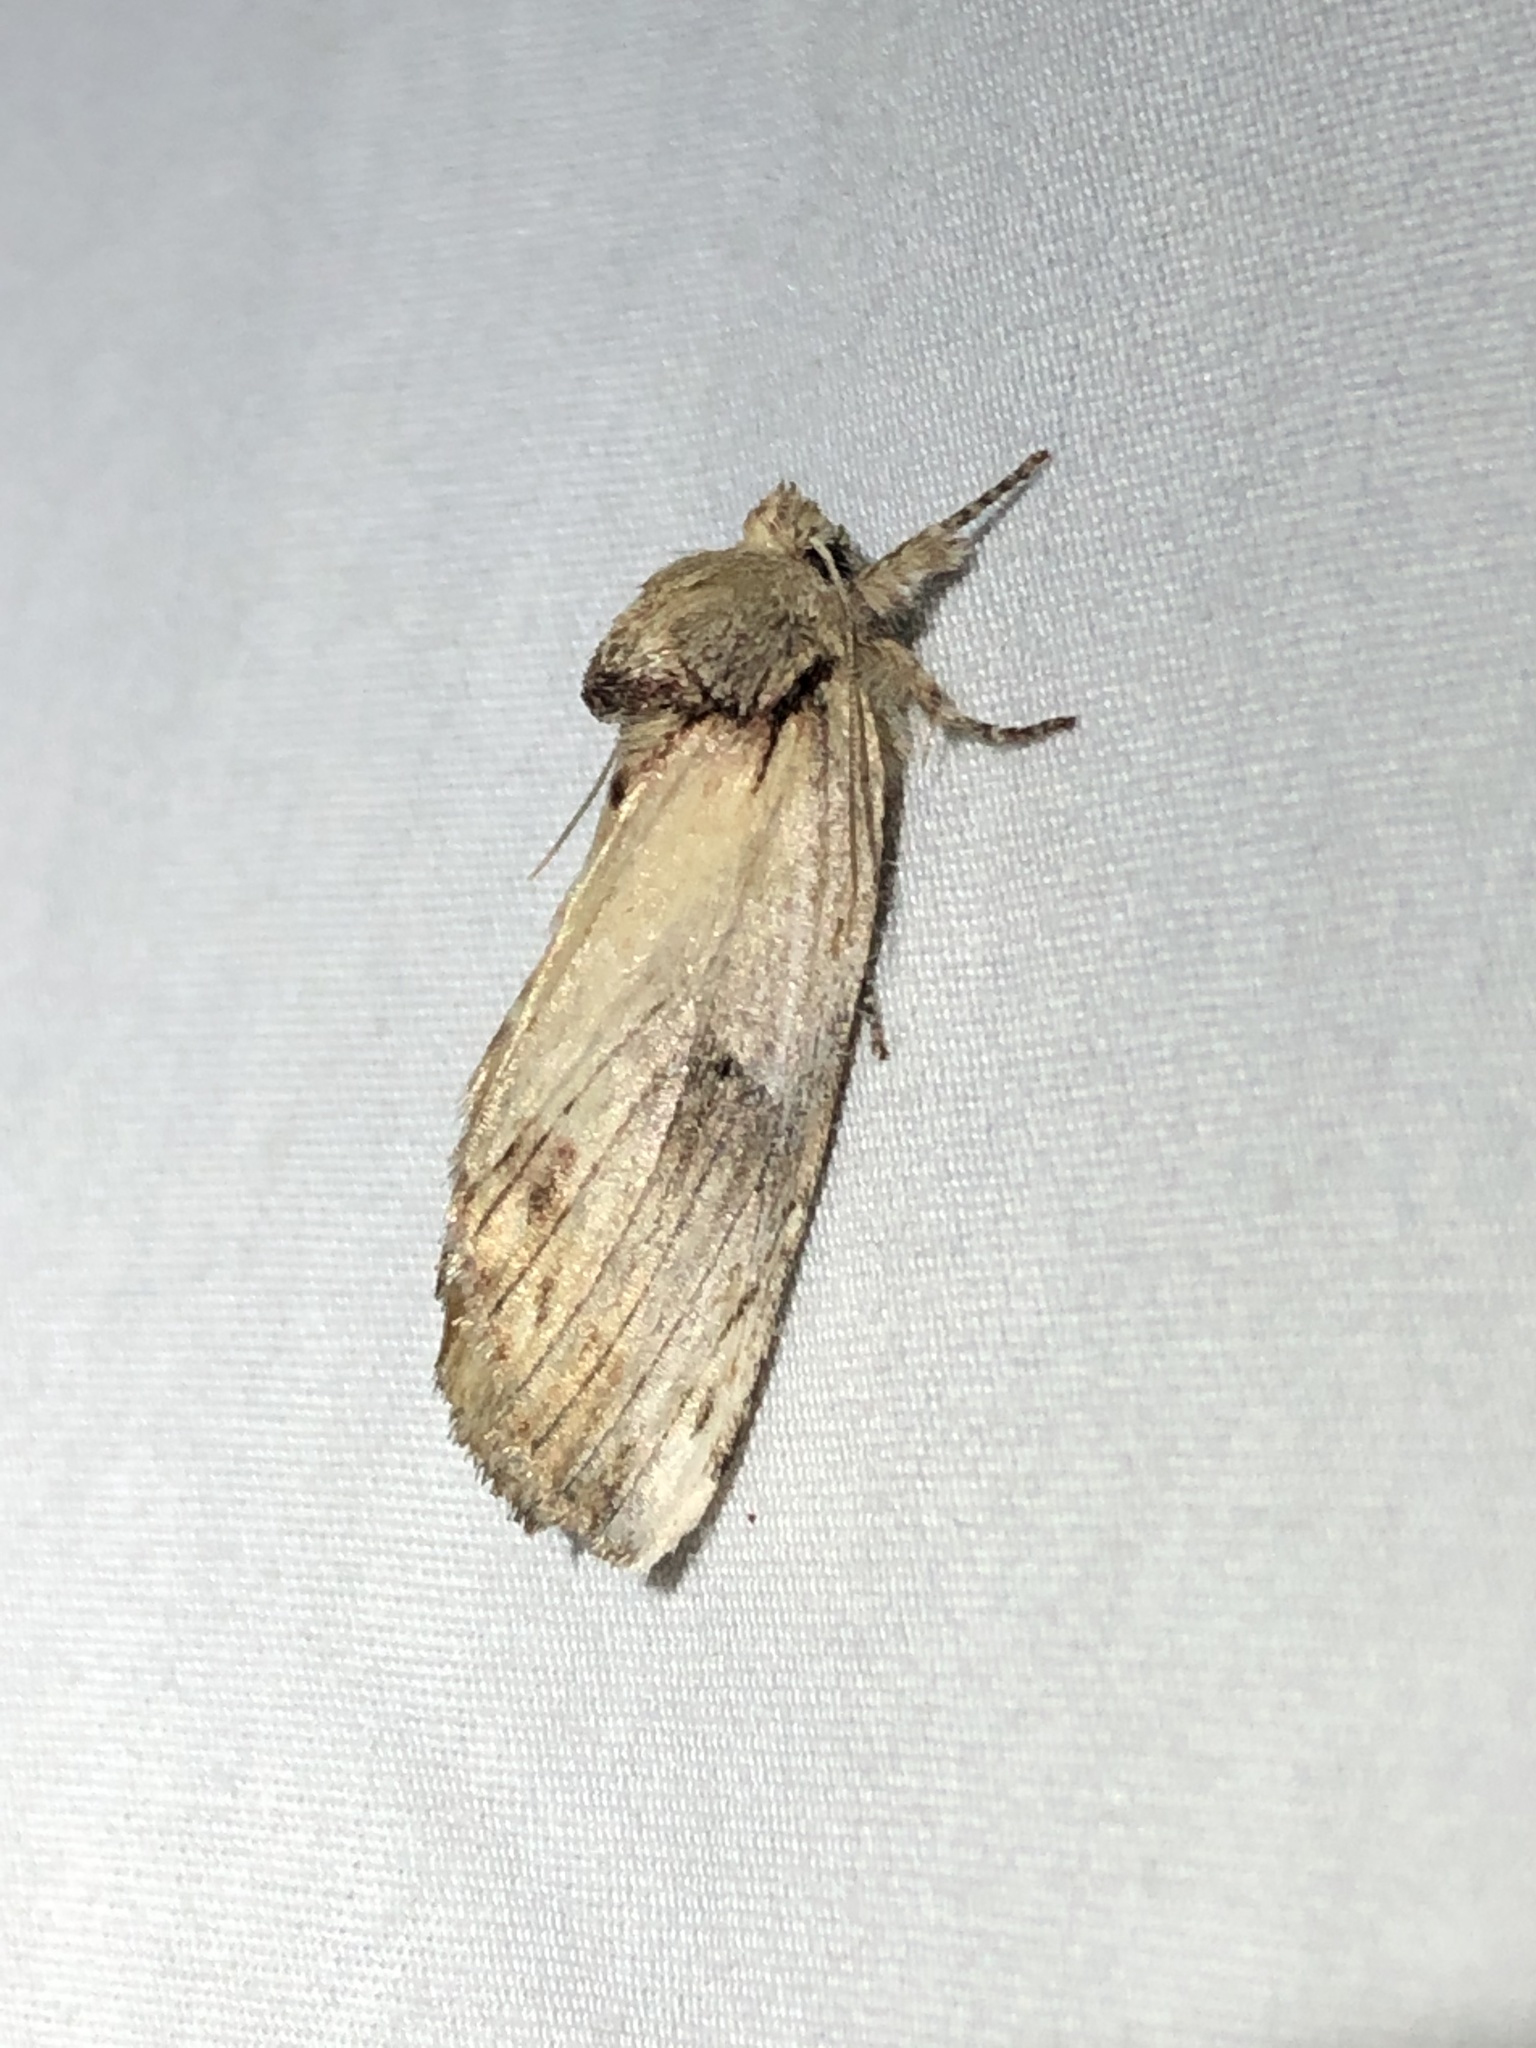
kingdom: Animalia
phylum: Arthropoda
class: Insecta
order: Lepidoptera
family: Notodontidae
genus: Schizura
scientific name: Schizura
